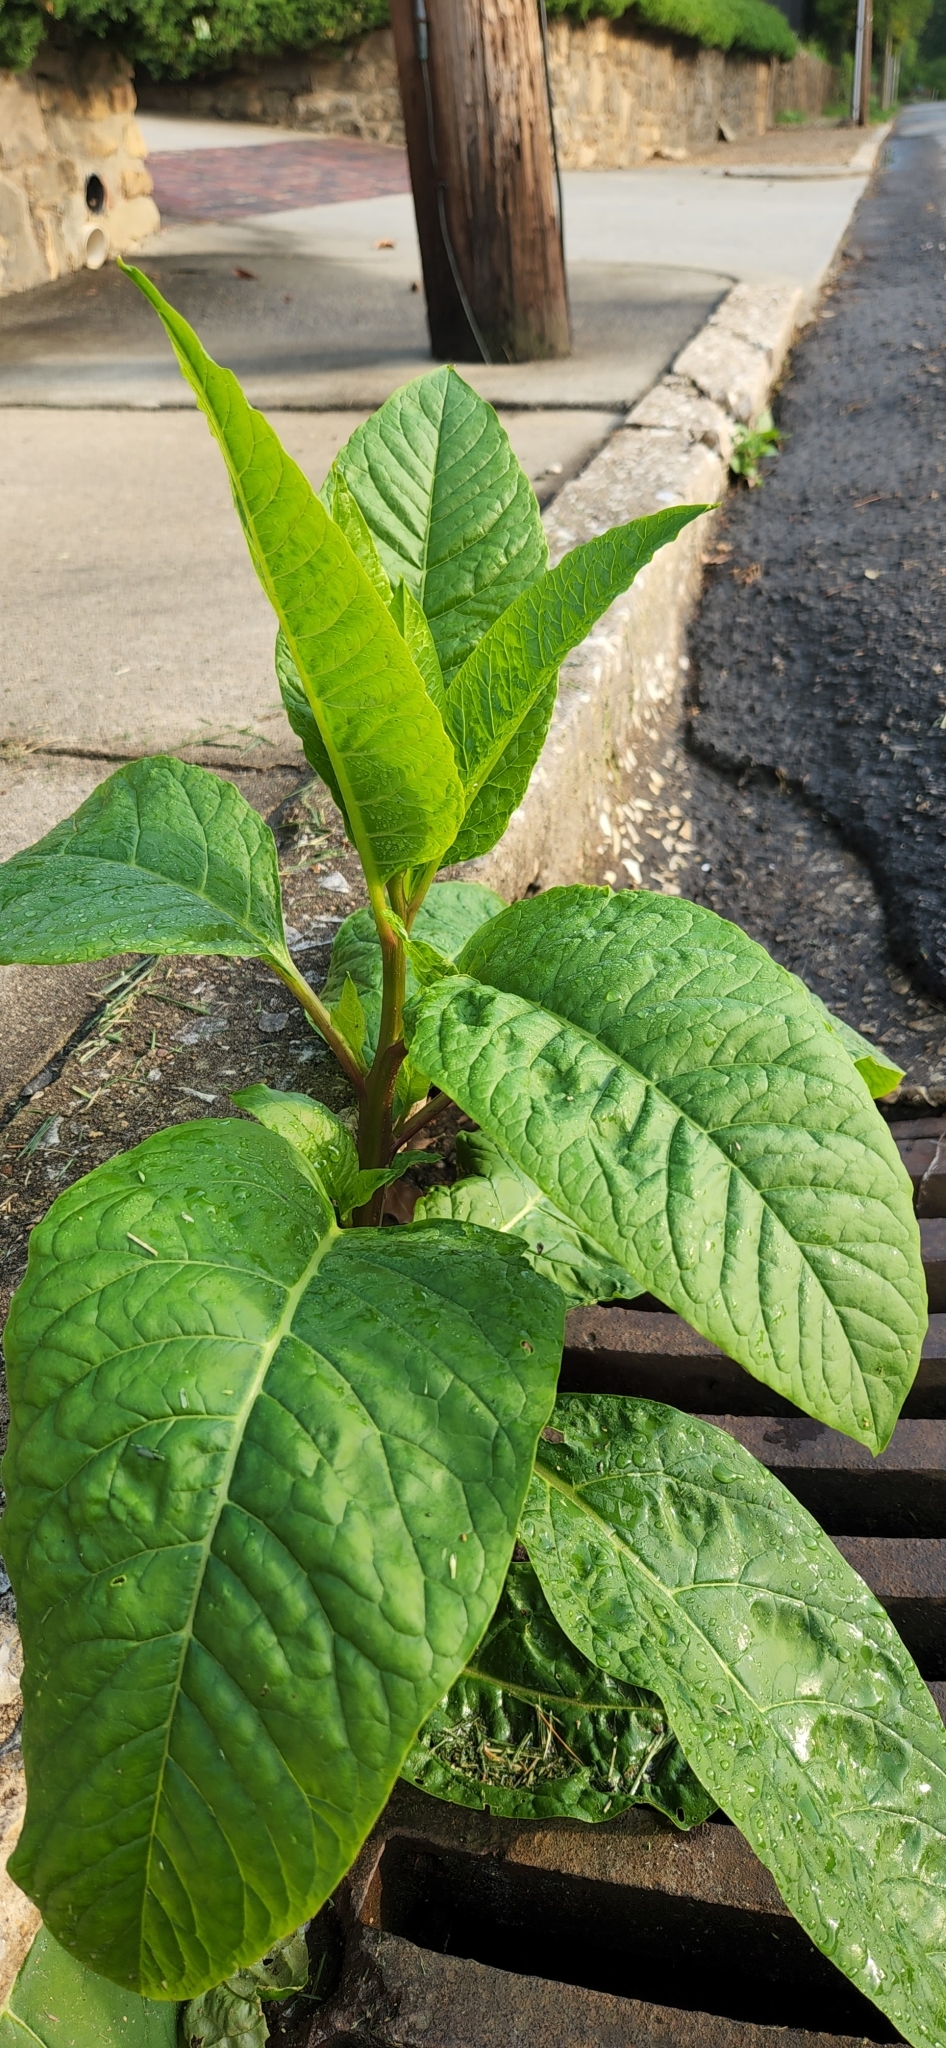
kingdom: Plantae
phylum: Tracheophyta
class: Magnoliopsida
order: Caryophyllales
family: Phytolaccaceae
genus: Phytolacca
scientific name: Phytolacca americana
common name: American pokeweed
